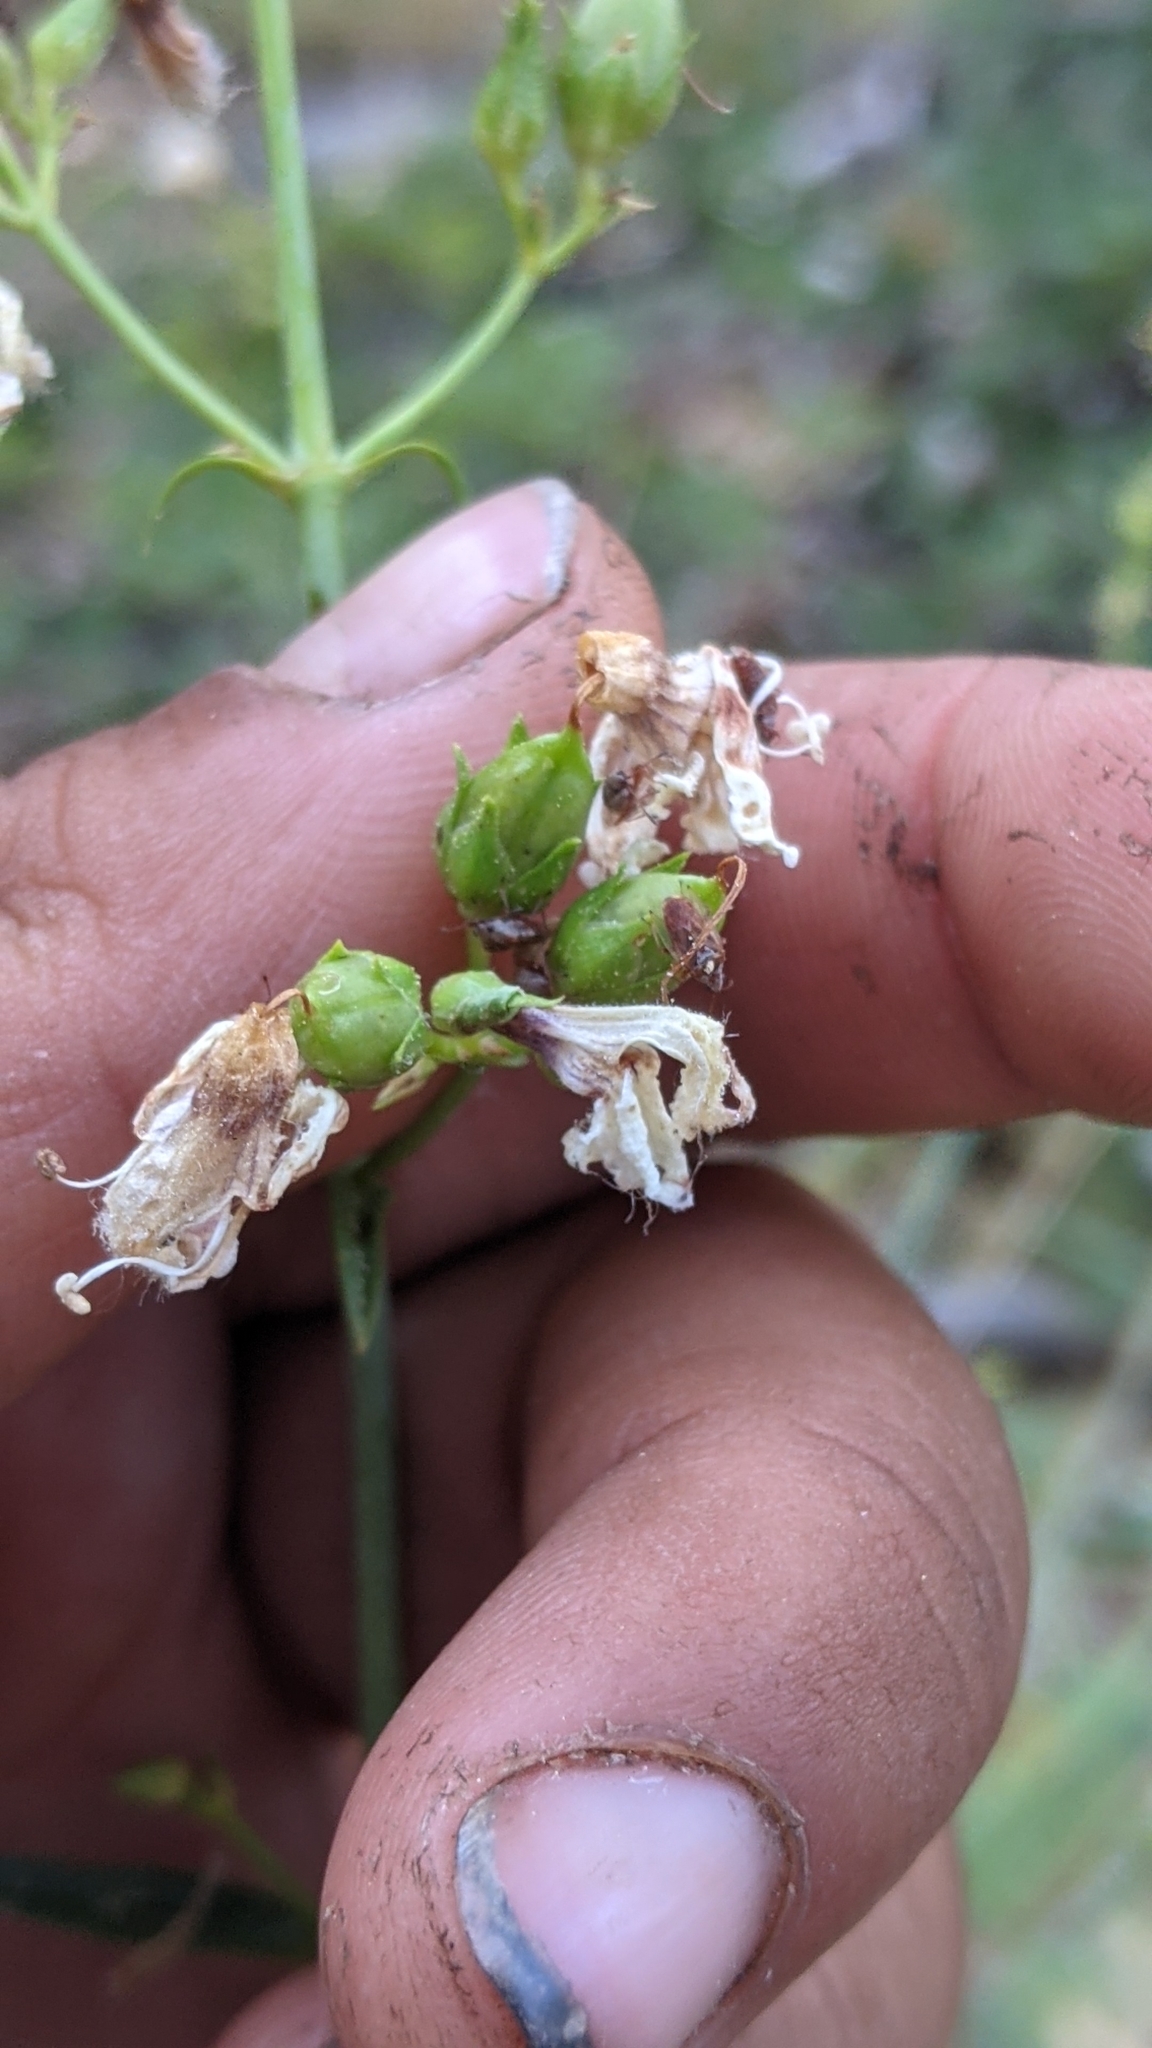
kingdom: Plantae
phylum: Tracheophyta
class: Magnoliopsida
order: Lamiales
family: Plantaginaceae
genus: Keckiella
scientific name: Keckiella breviflora
